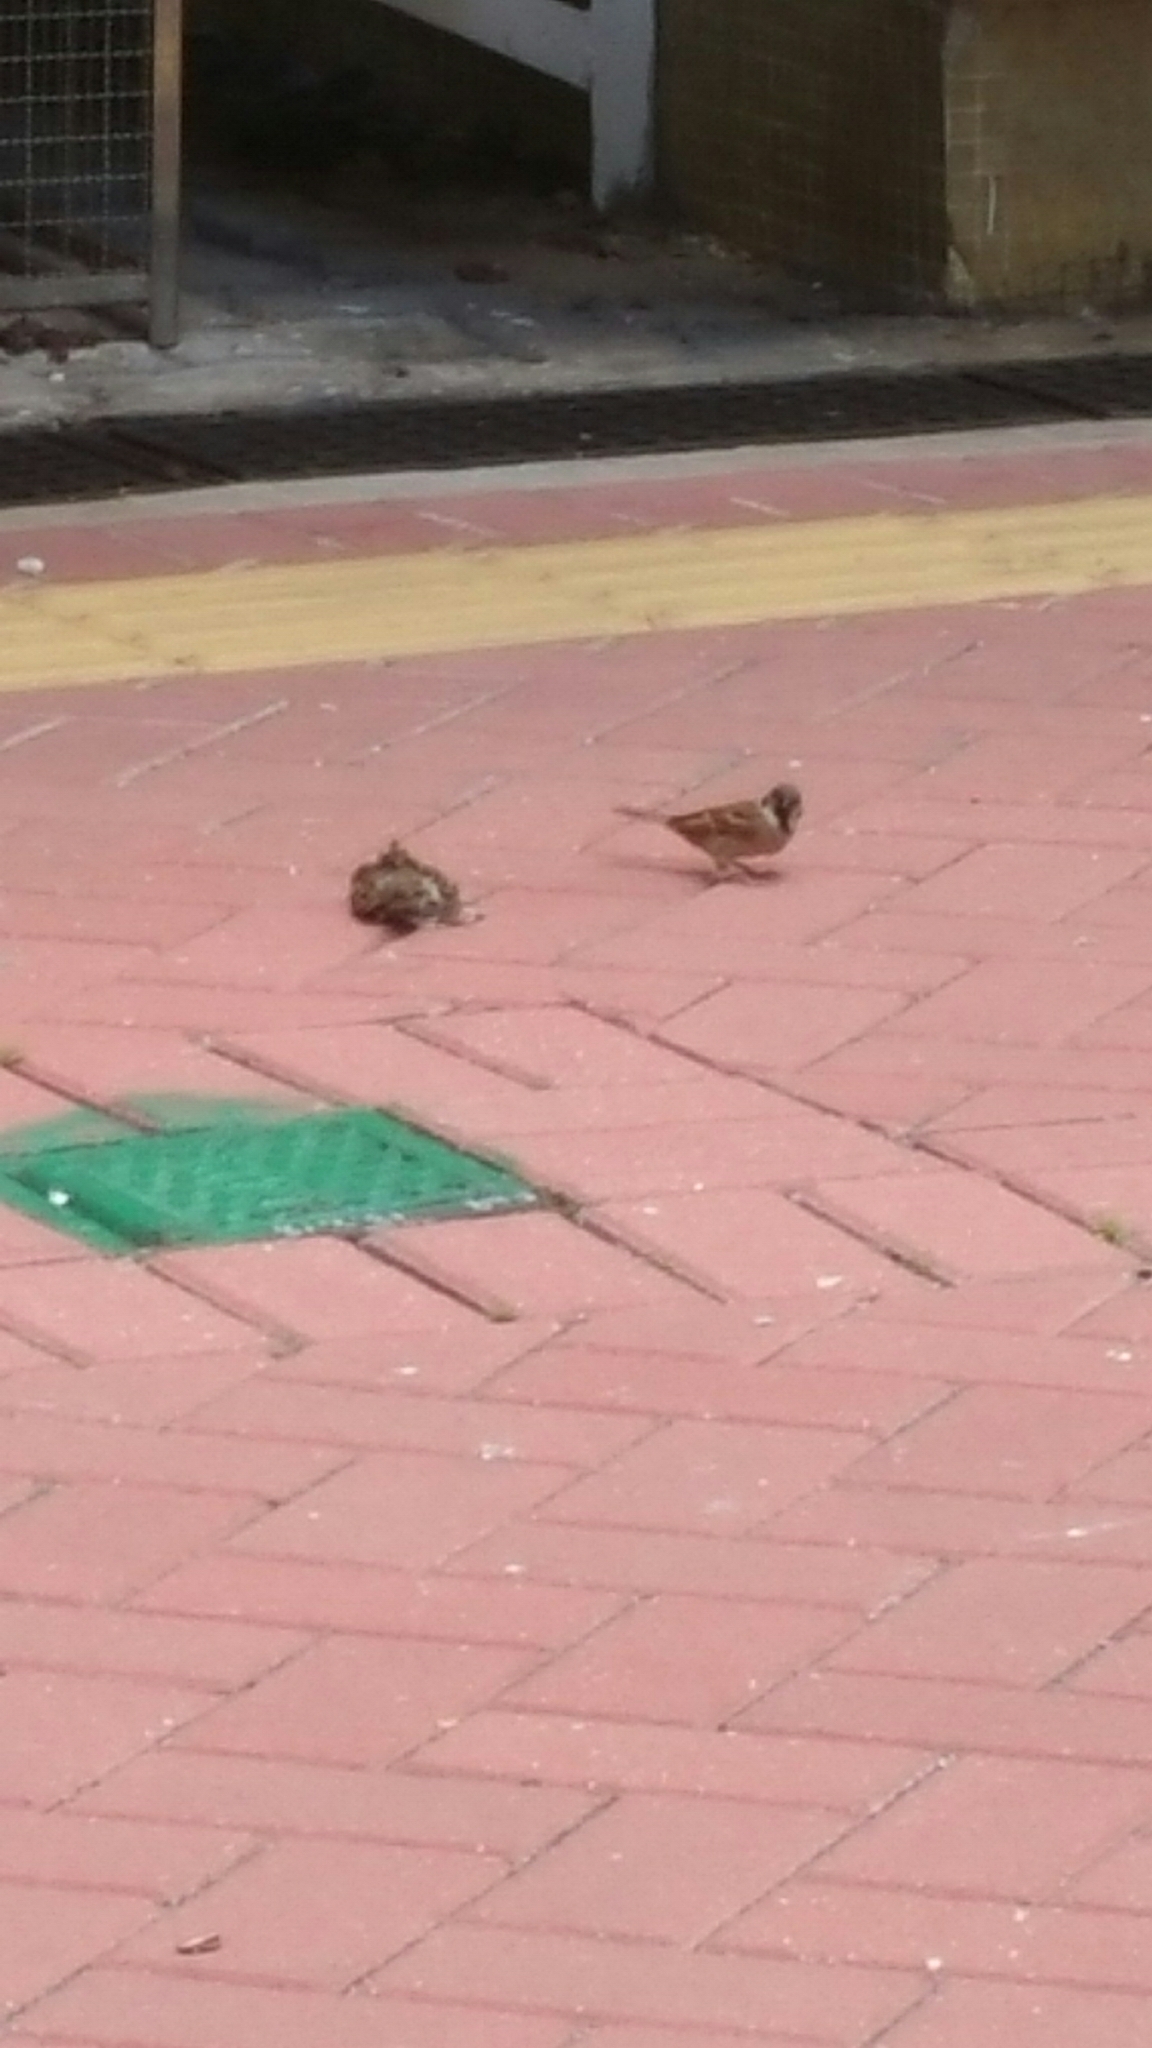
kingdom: Animalia
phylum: Chordata
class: Aves
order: Passeriformes
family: Passeridae
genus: Passer
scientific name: Passer montanus
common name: Eurasian tree sparrow
